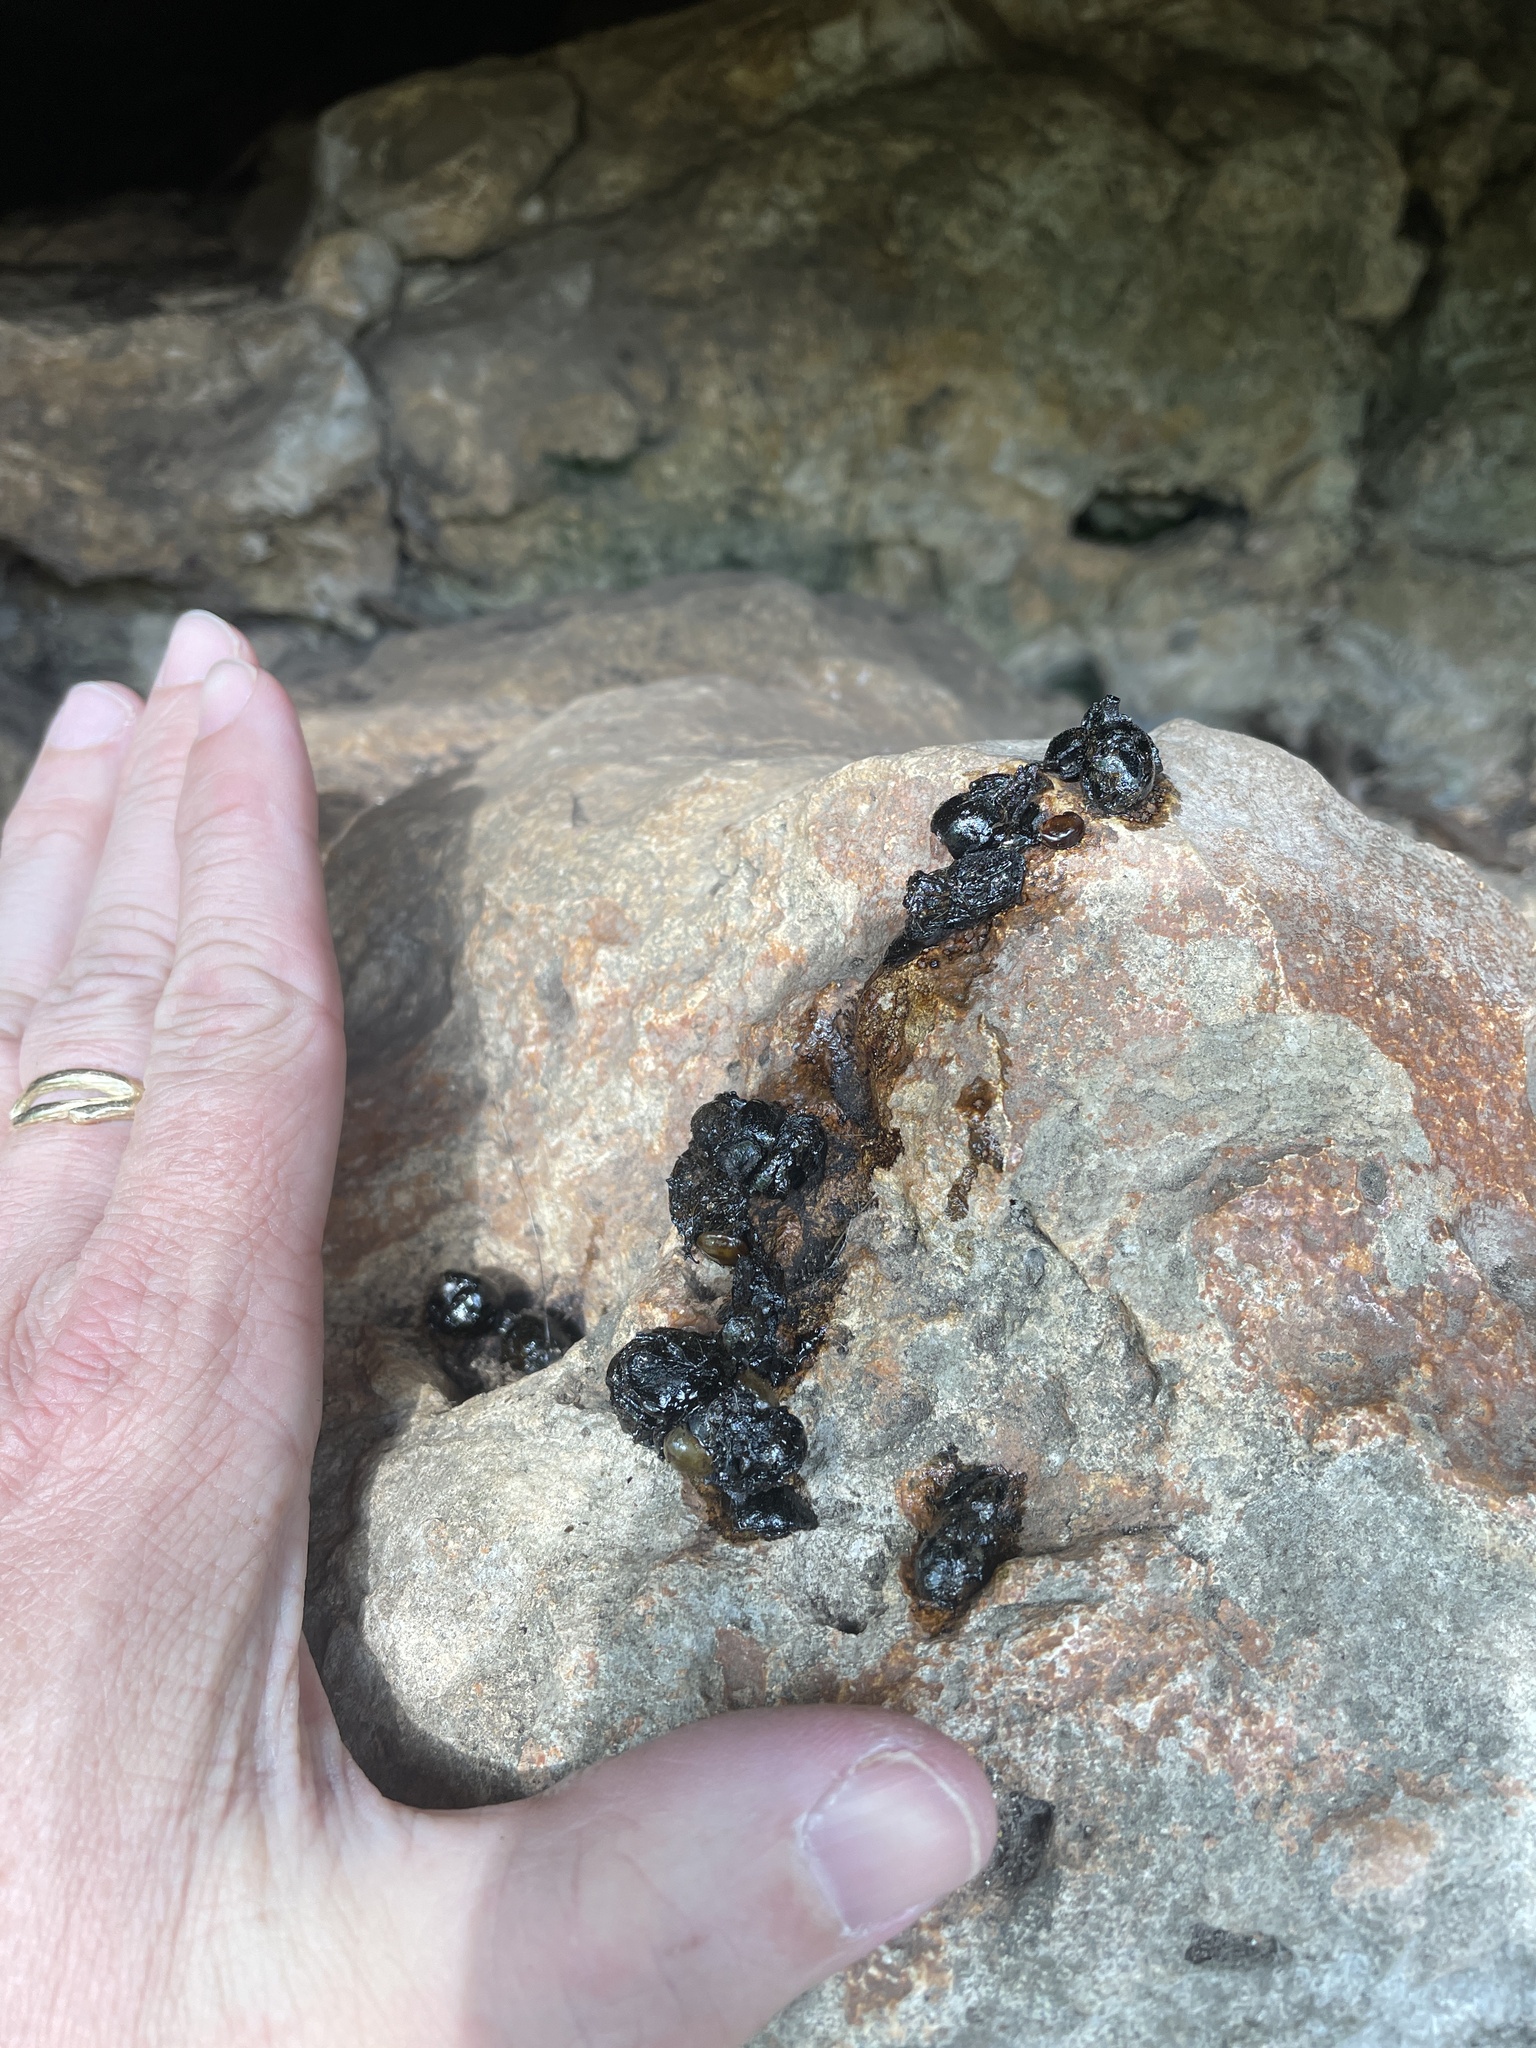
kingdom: Animalia
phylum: Chordata
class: Mammalia
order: Carnivora
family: Procyonidae
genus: Bassariscus
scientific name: Bassariscus astutus
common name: Ringtail
